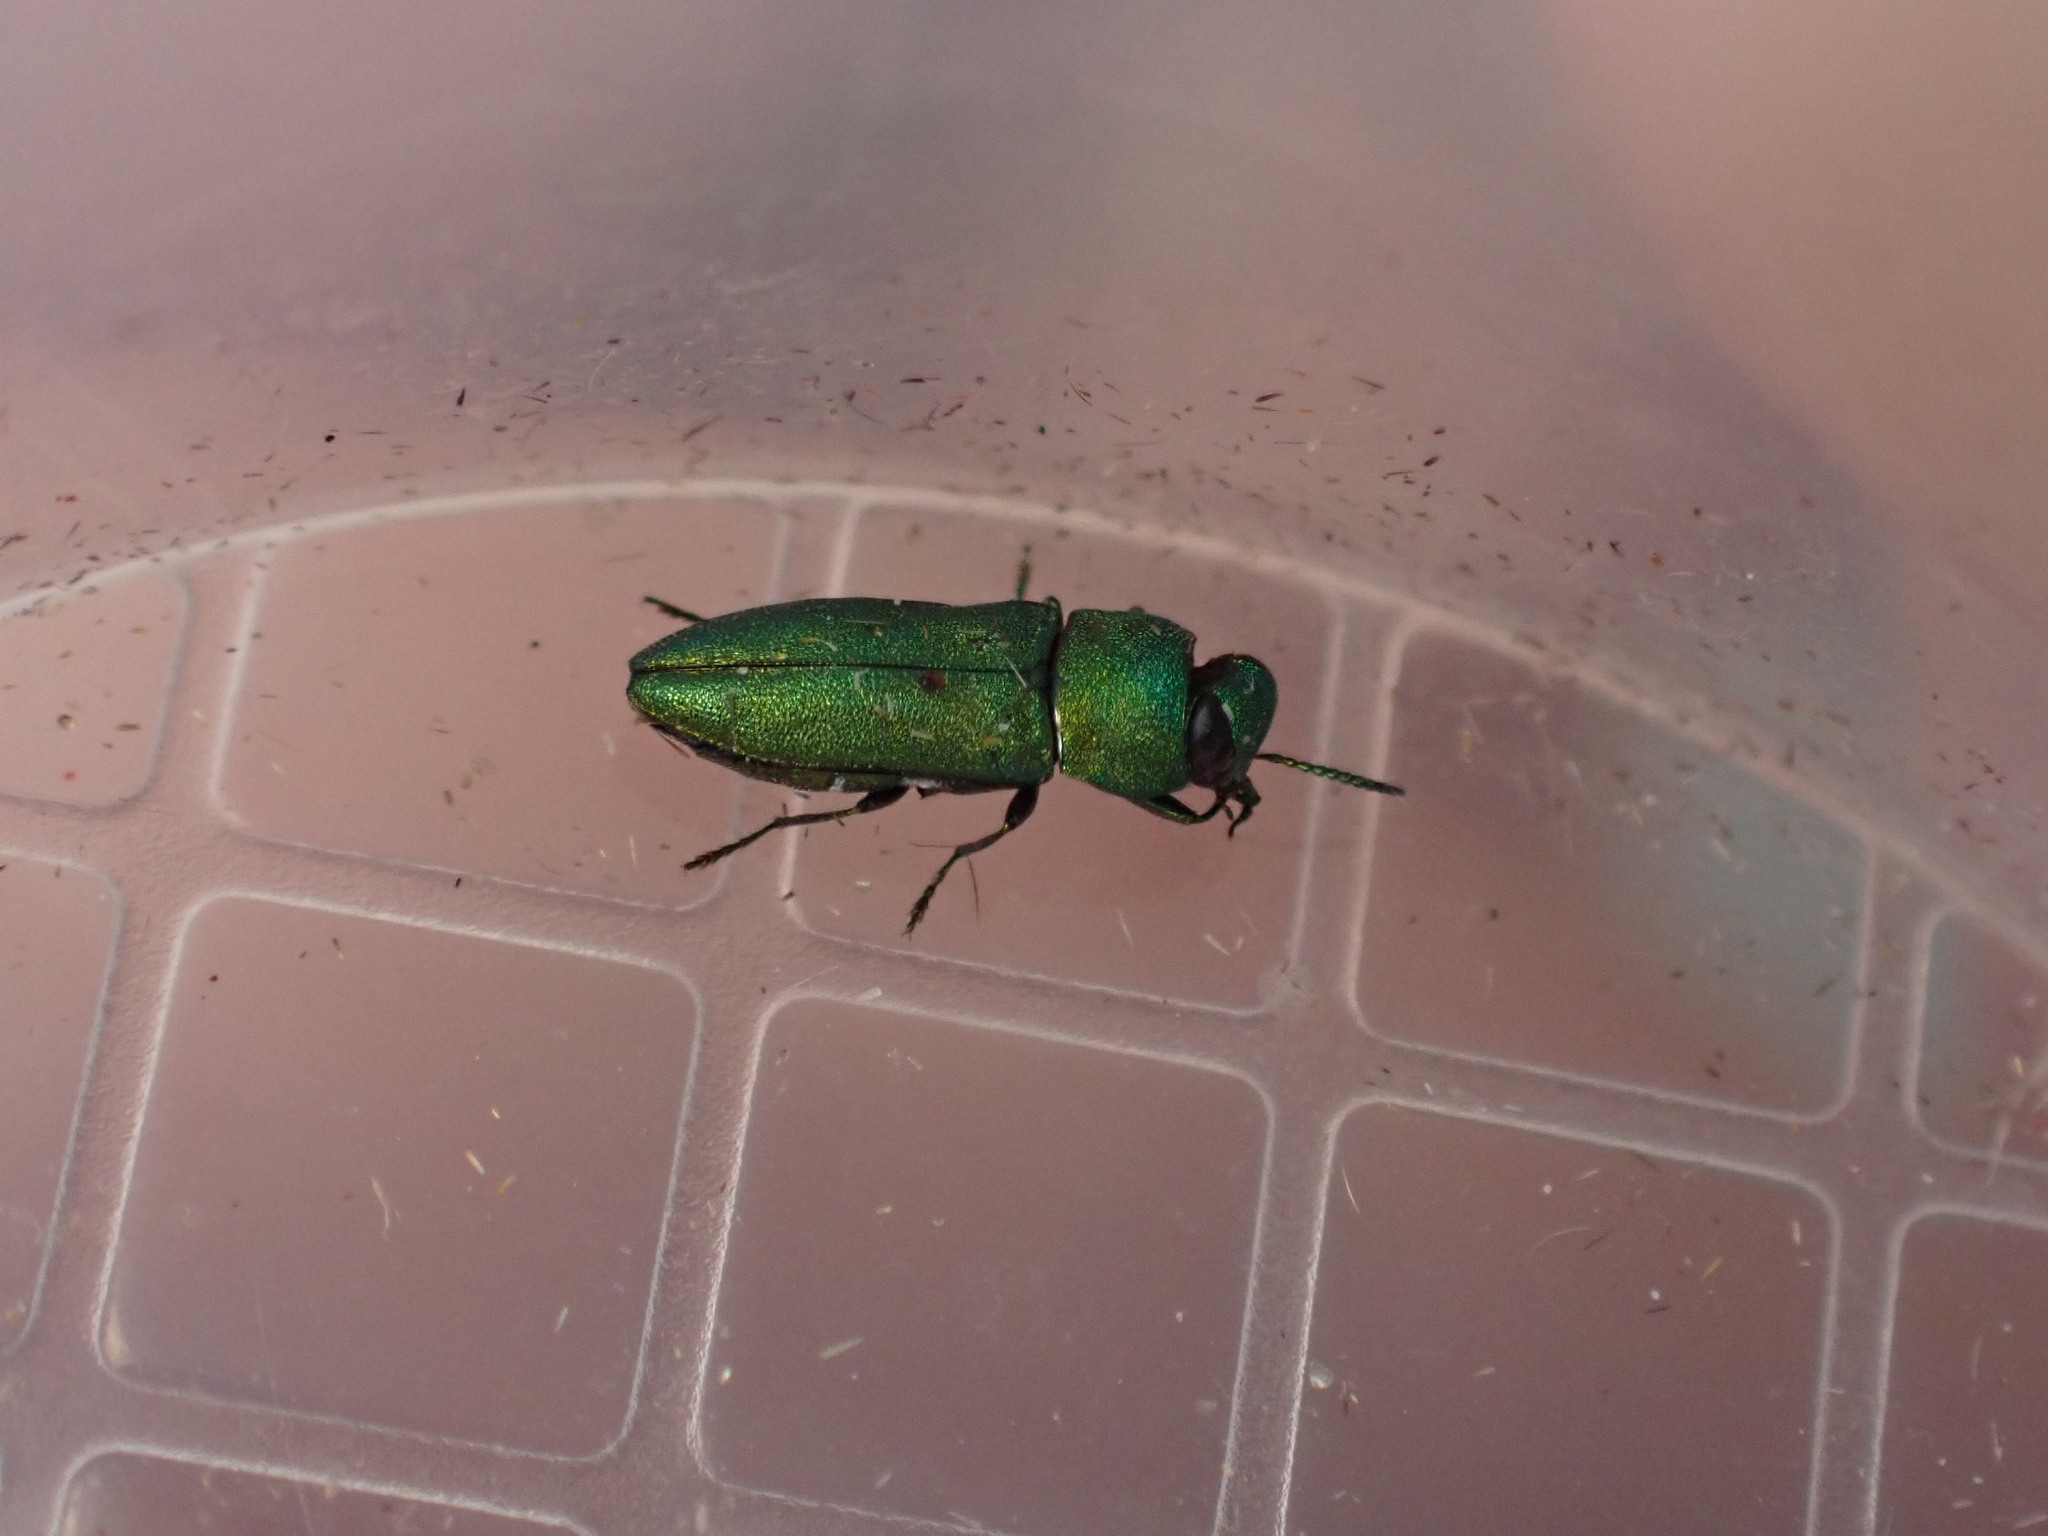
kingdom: Animalia
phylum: Arthropoda
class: Insecta
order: Coleoptera
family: Buprestidae
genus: Anthaxia
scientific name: Anthaxia millefolii
